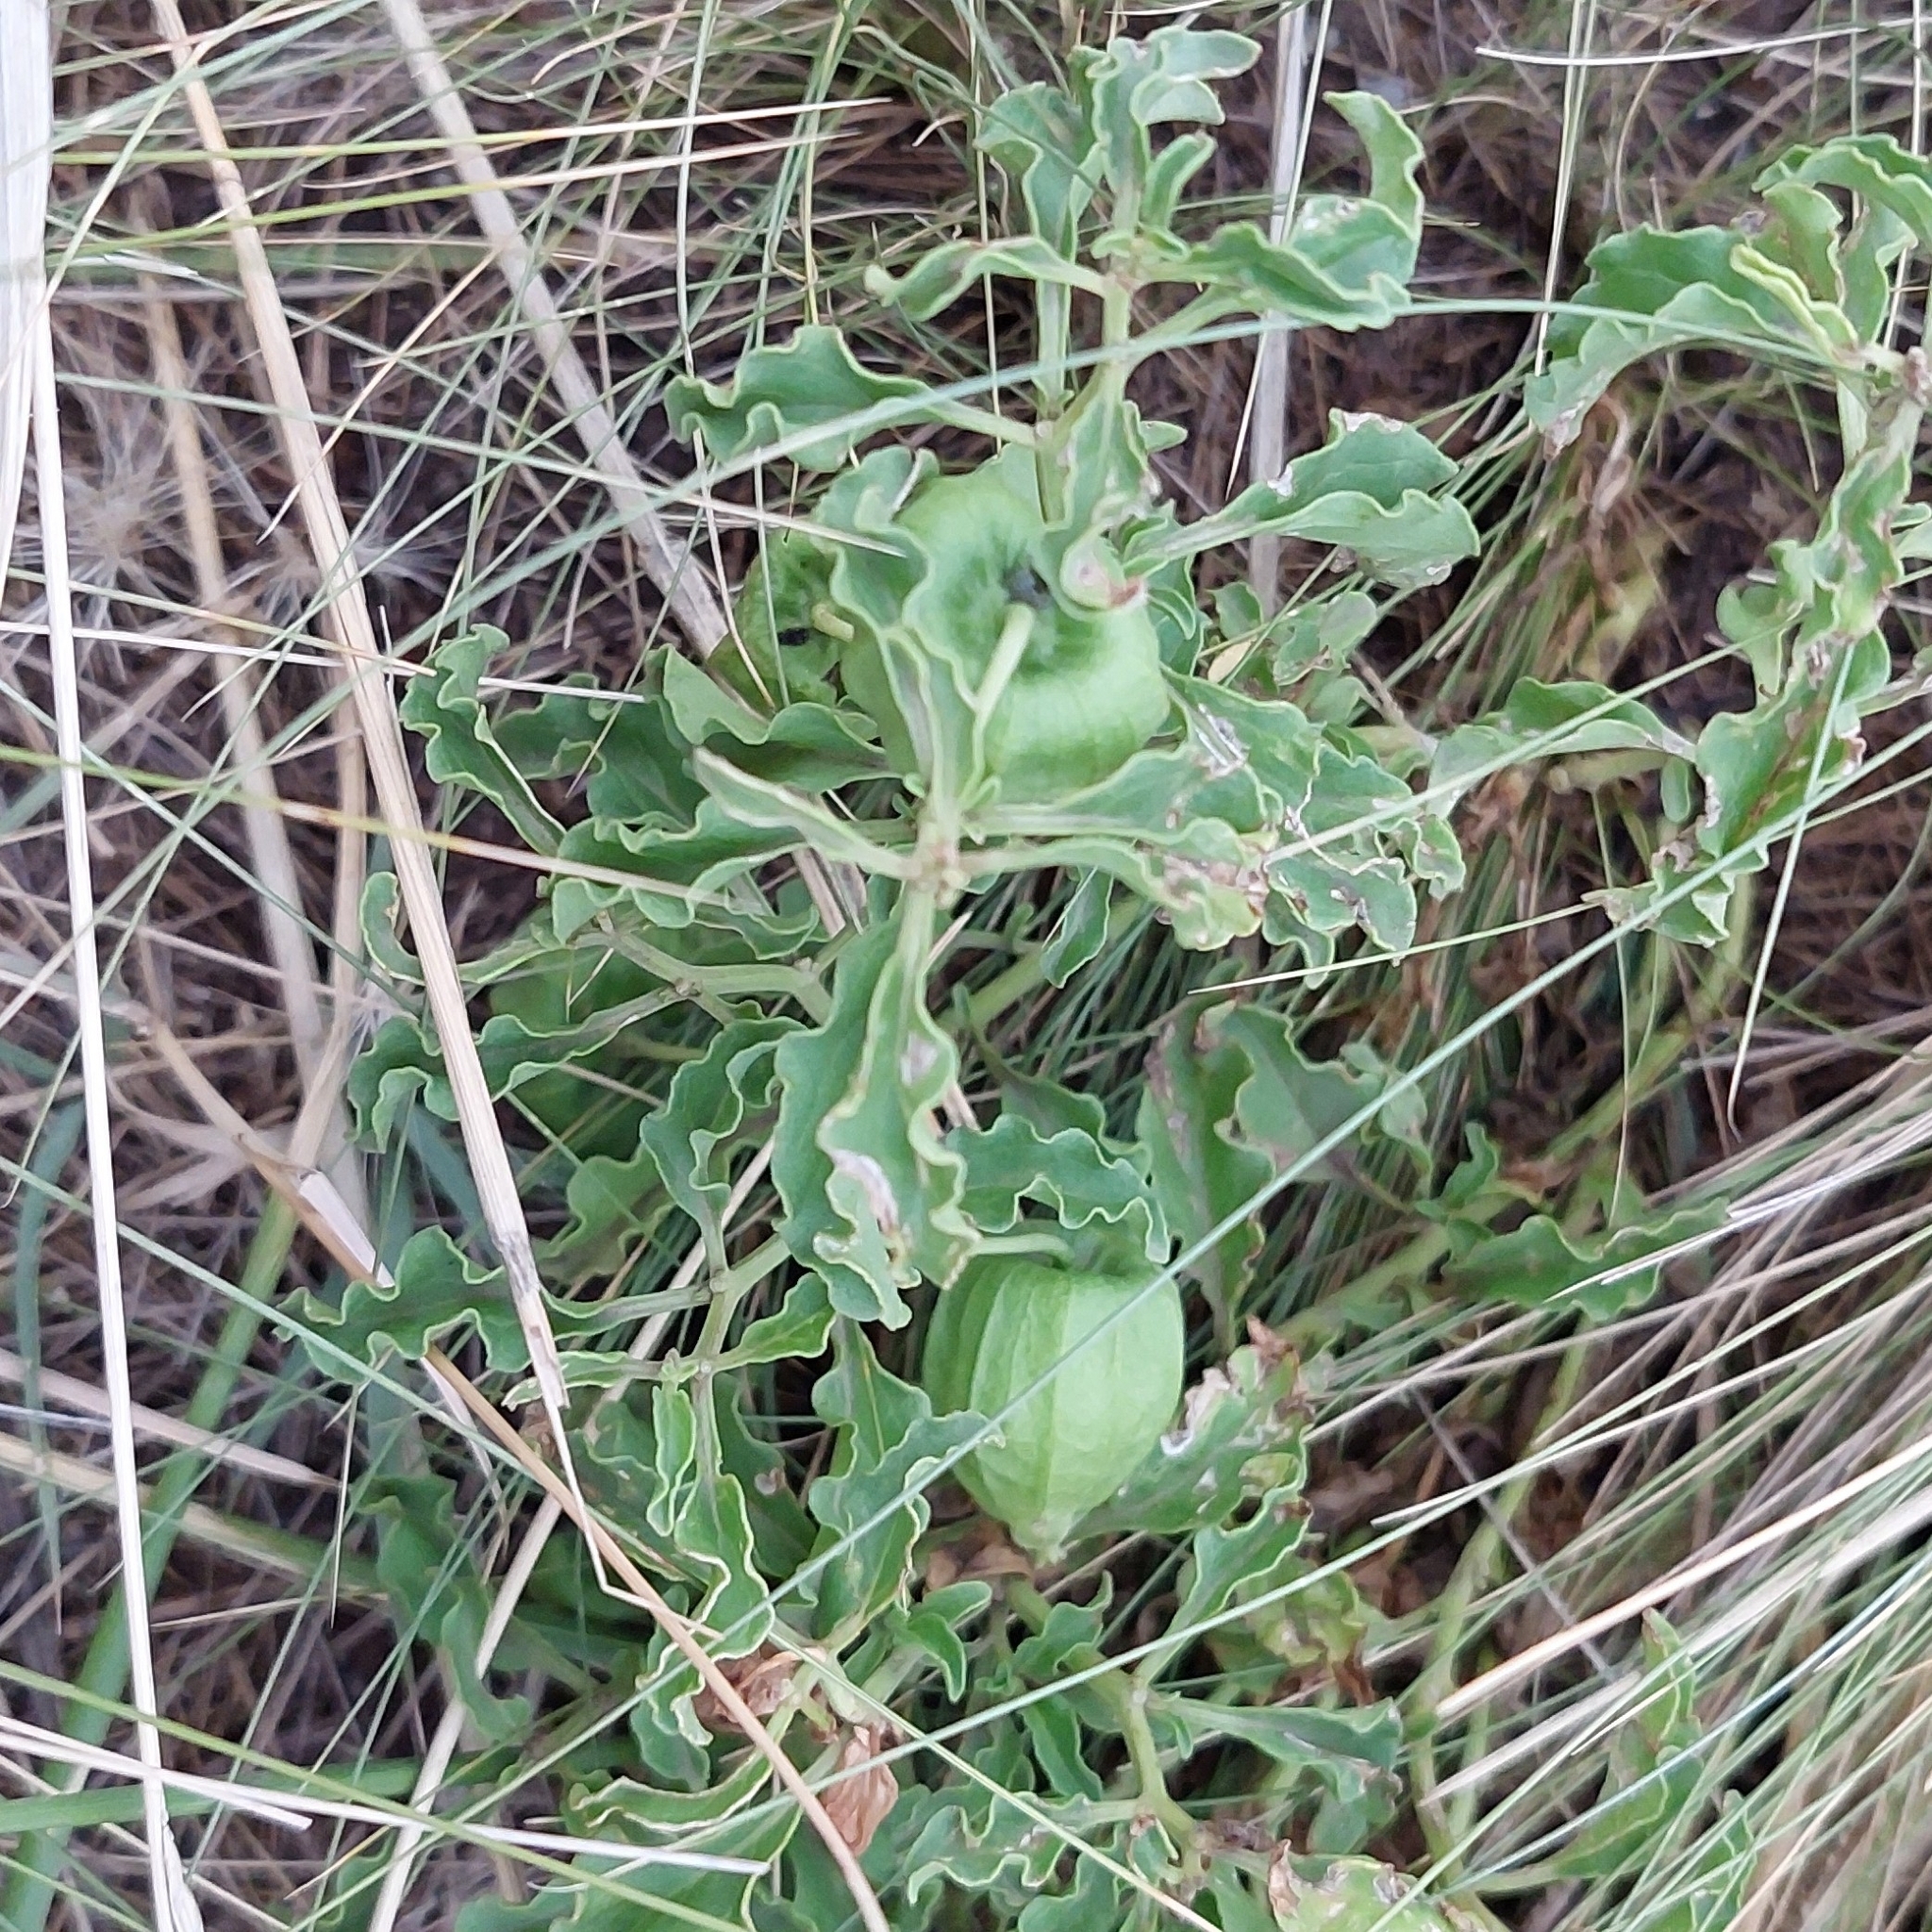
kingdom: Plantae
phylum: Tracheophyta
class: Magnoliopsida
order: Solanales
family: Solanaceae
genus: Physalis
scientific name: Physalis viscosa
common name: Stellate ground-cherry
